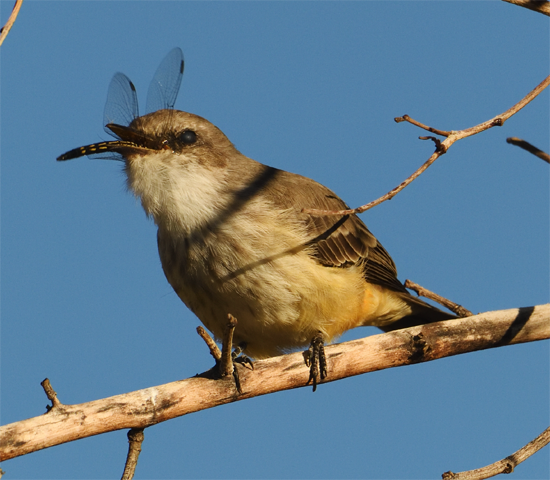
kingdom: Animalia
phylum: Chordata
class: Aves
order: Passeriformes
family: Tyrannidae
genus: Pyrocephalus
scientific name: Pyrocephalus rubinus
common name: Vermilion flycatcher
